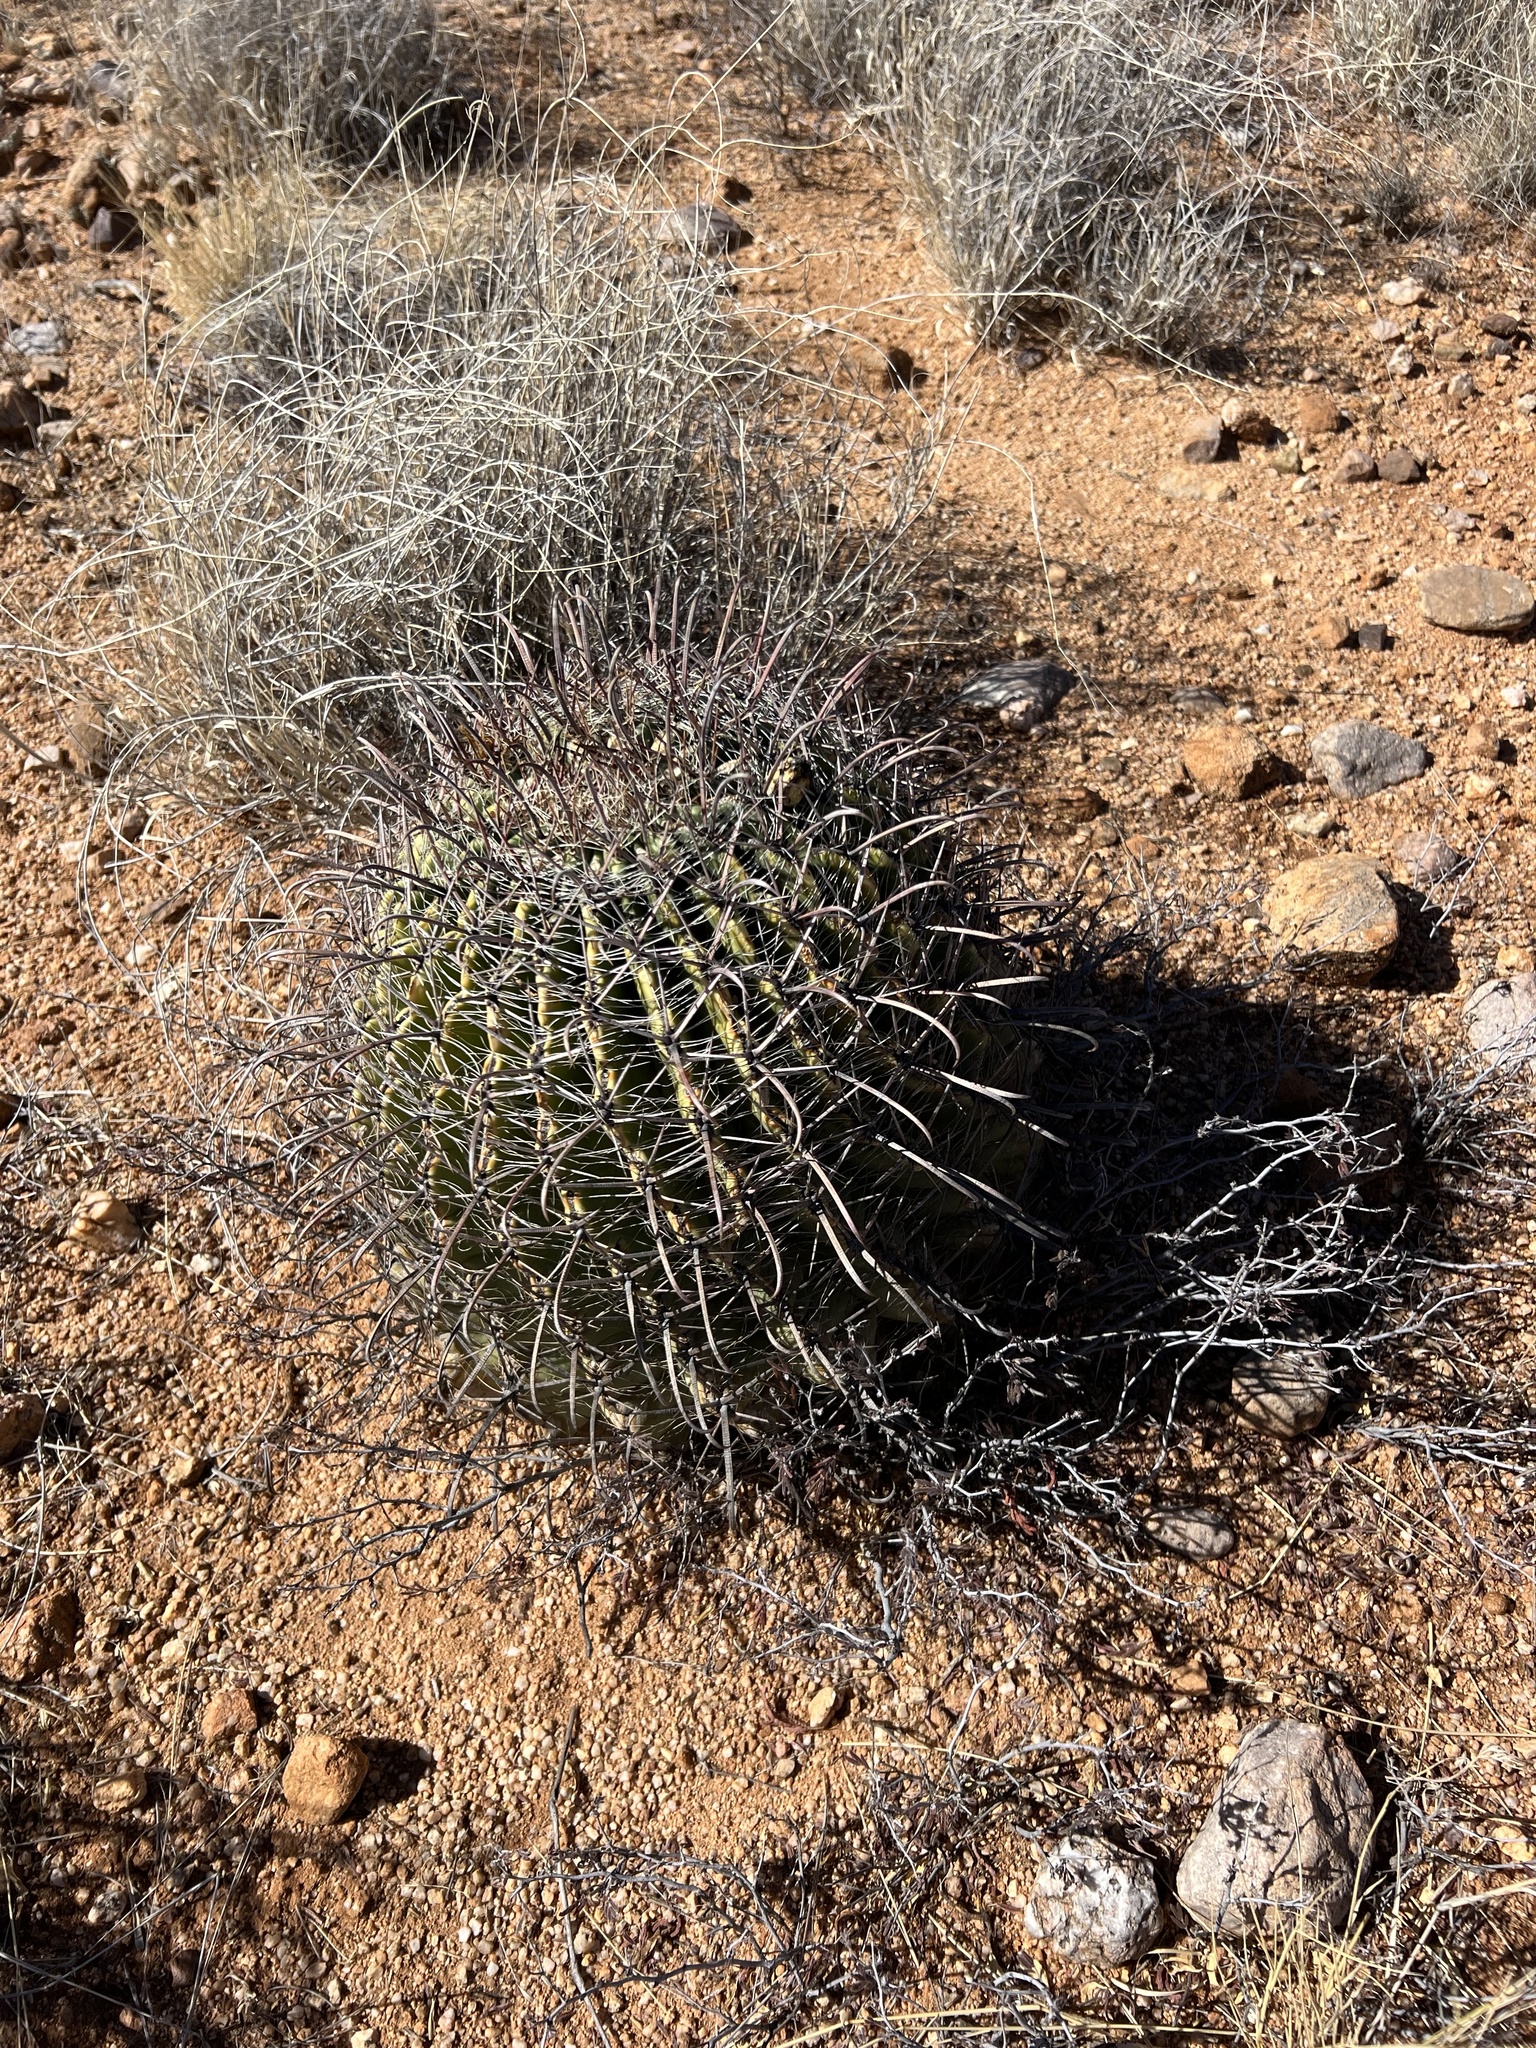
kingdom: Plantae
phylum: Tracheophyta
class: Magnoliopsida
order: Caryophyllales
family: Cactaceae
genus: Ferocactus
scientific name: Ferocactus wislizeni
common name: Candy barrel cactus
